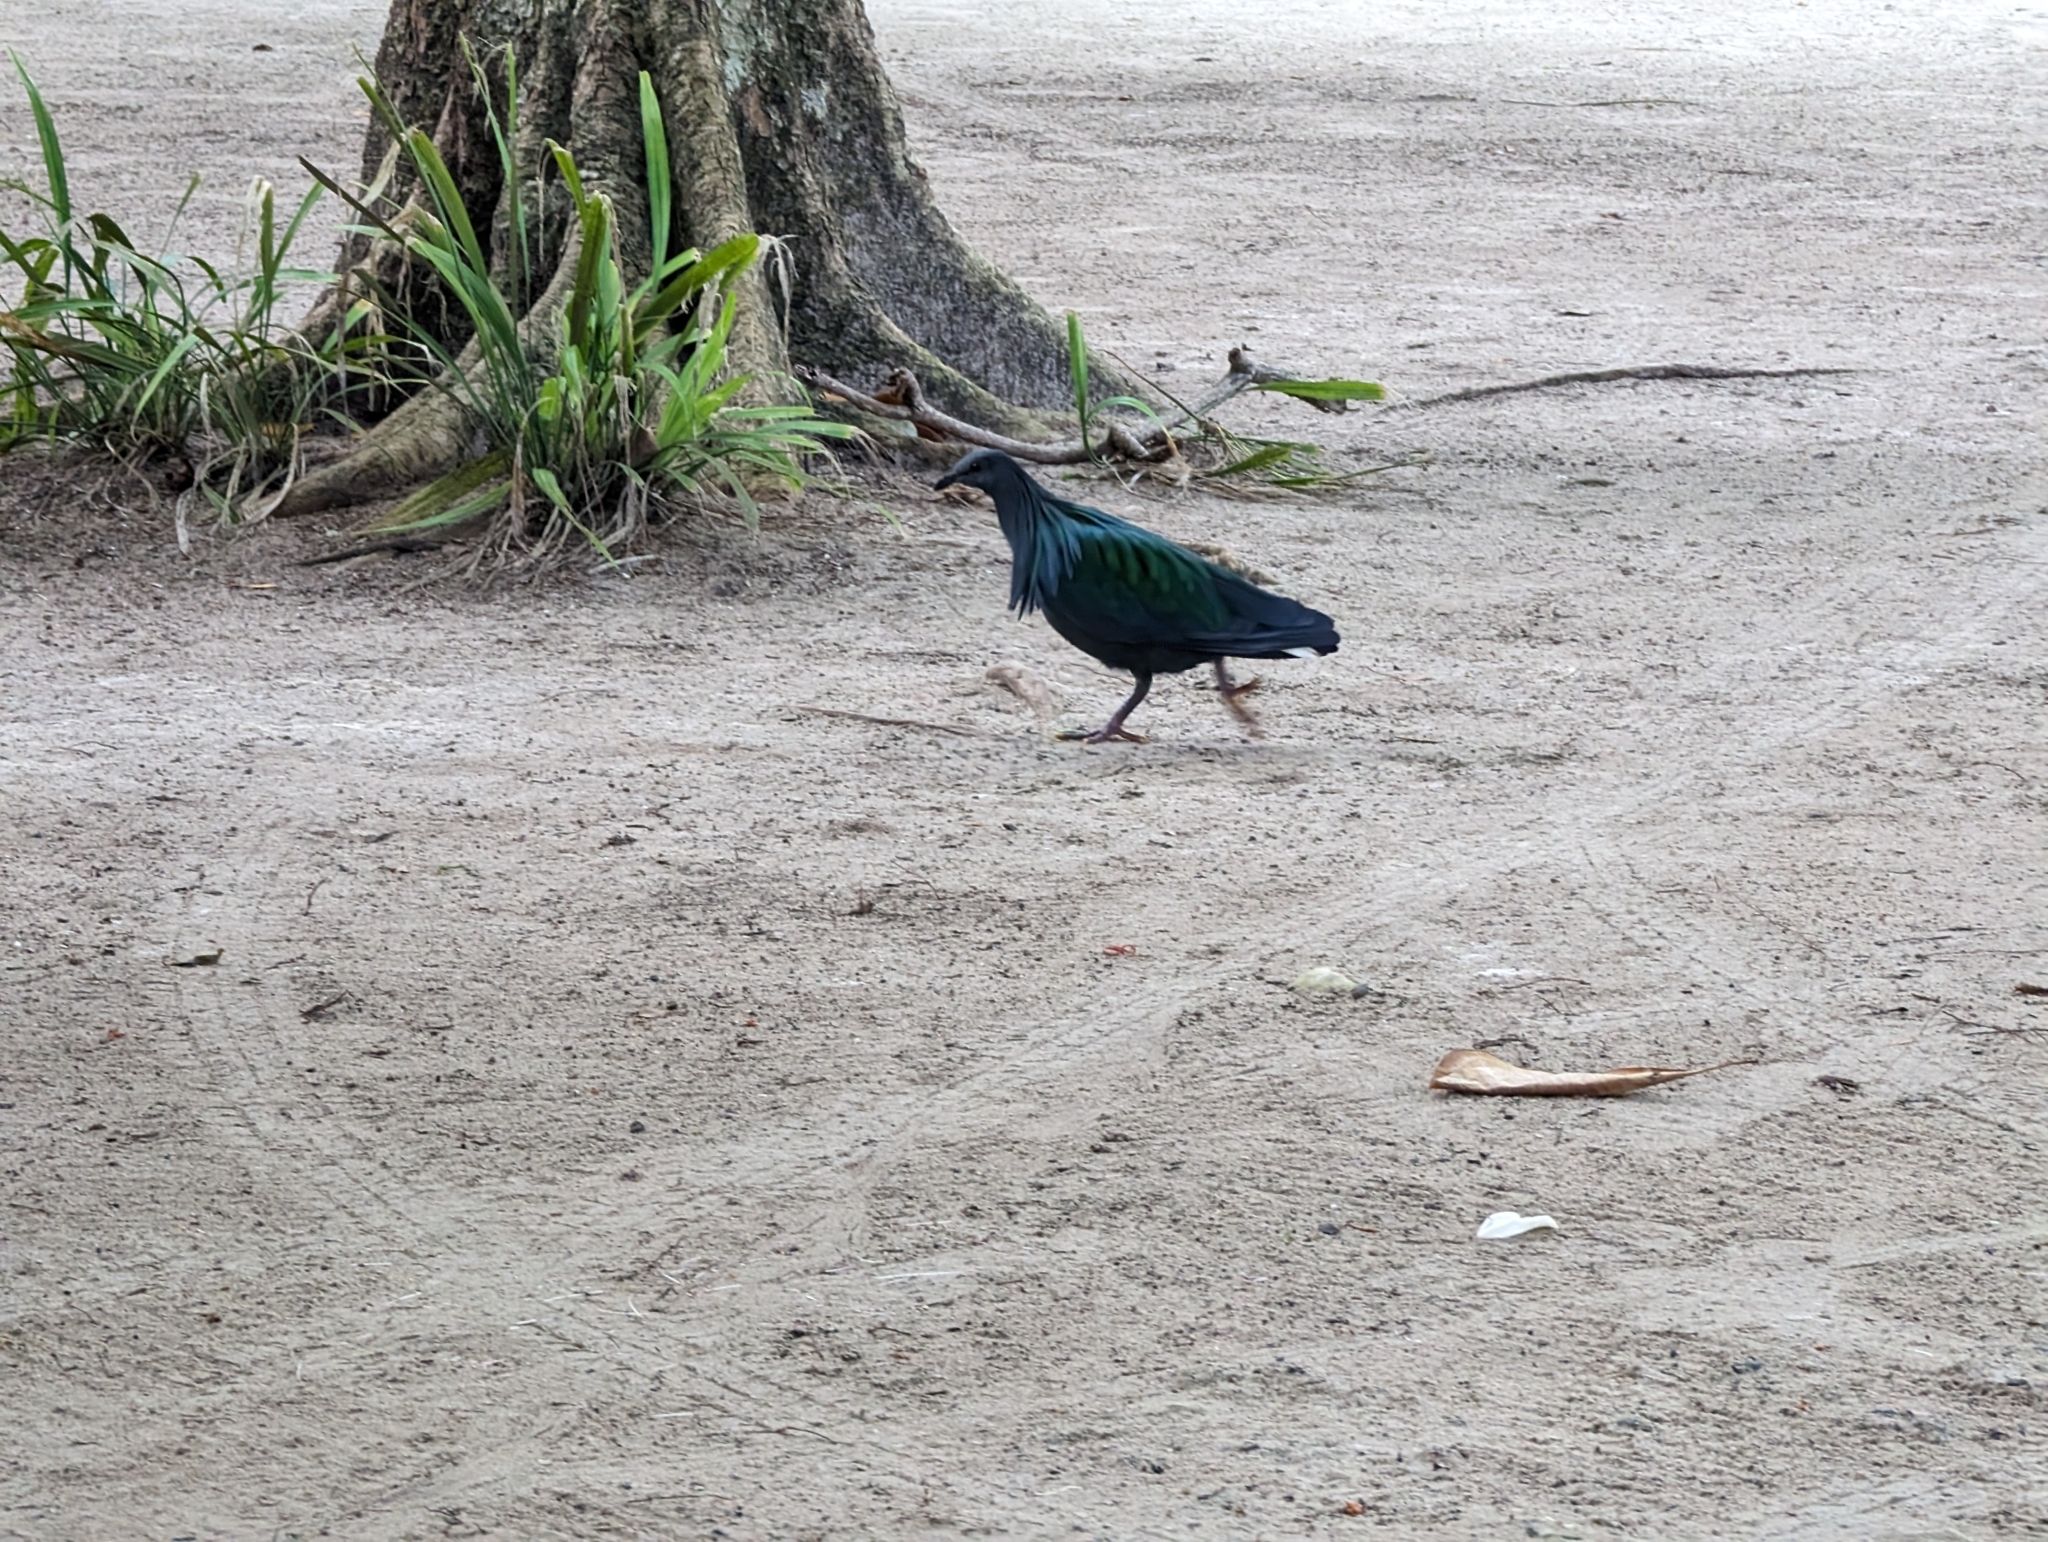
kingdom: Animalia
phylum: Chordata
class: Aves
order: Columbiformes
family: Columbidae
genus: Caloenas
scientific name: Caloenas nicobarica
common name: Nicobar pigeon
